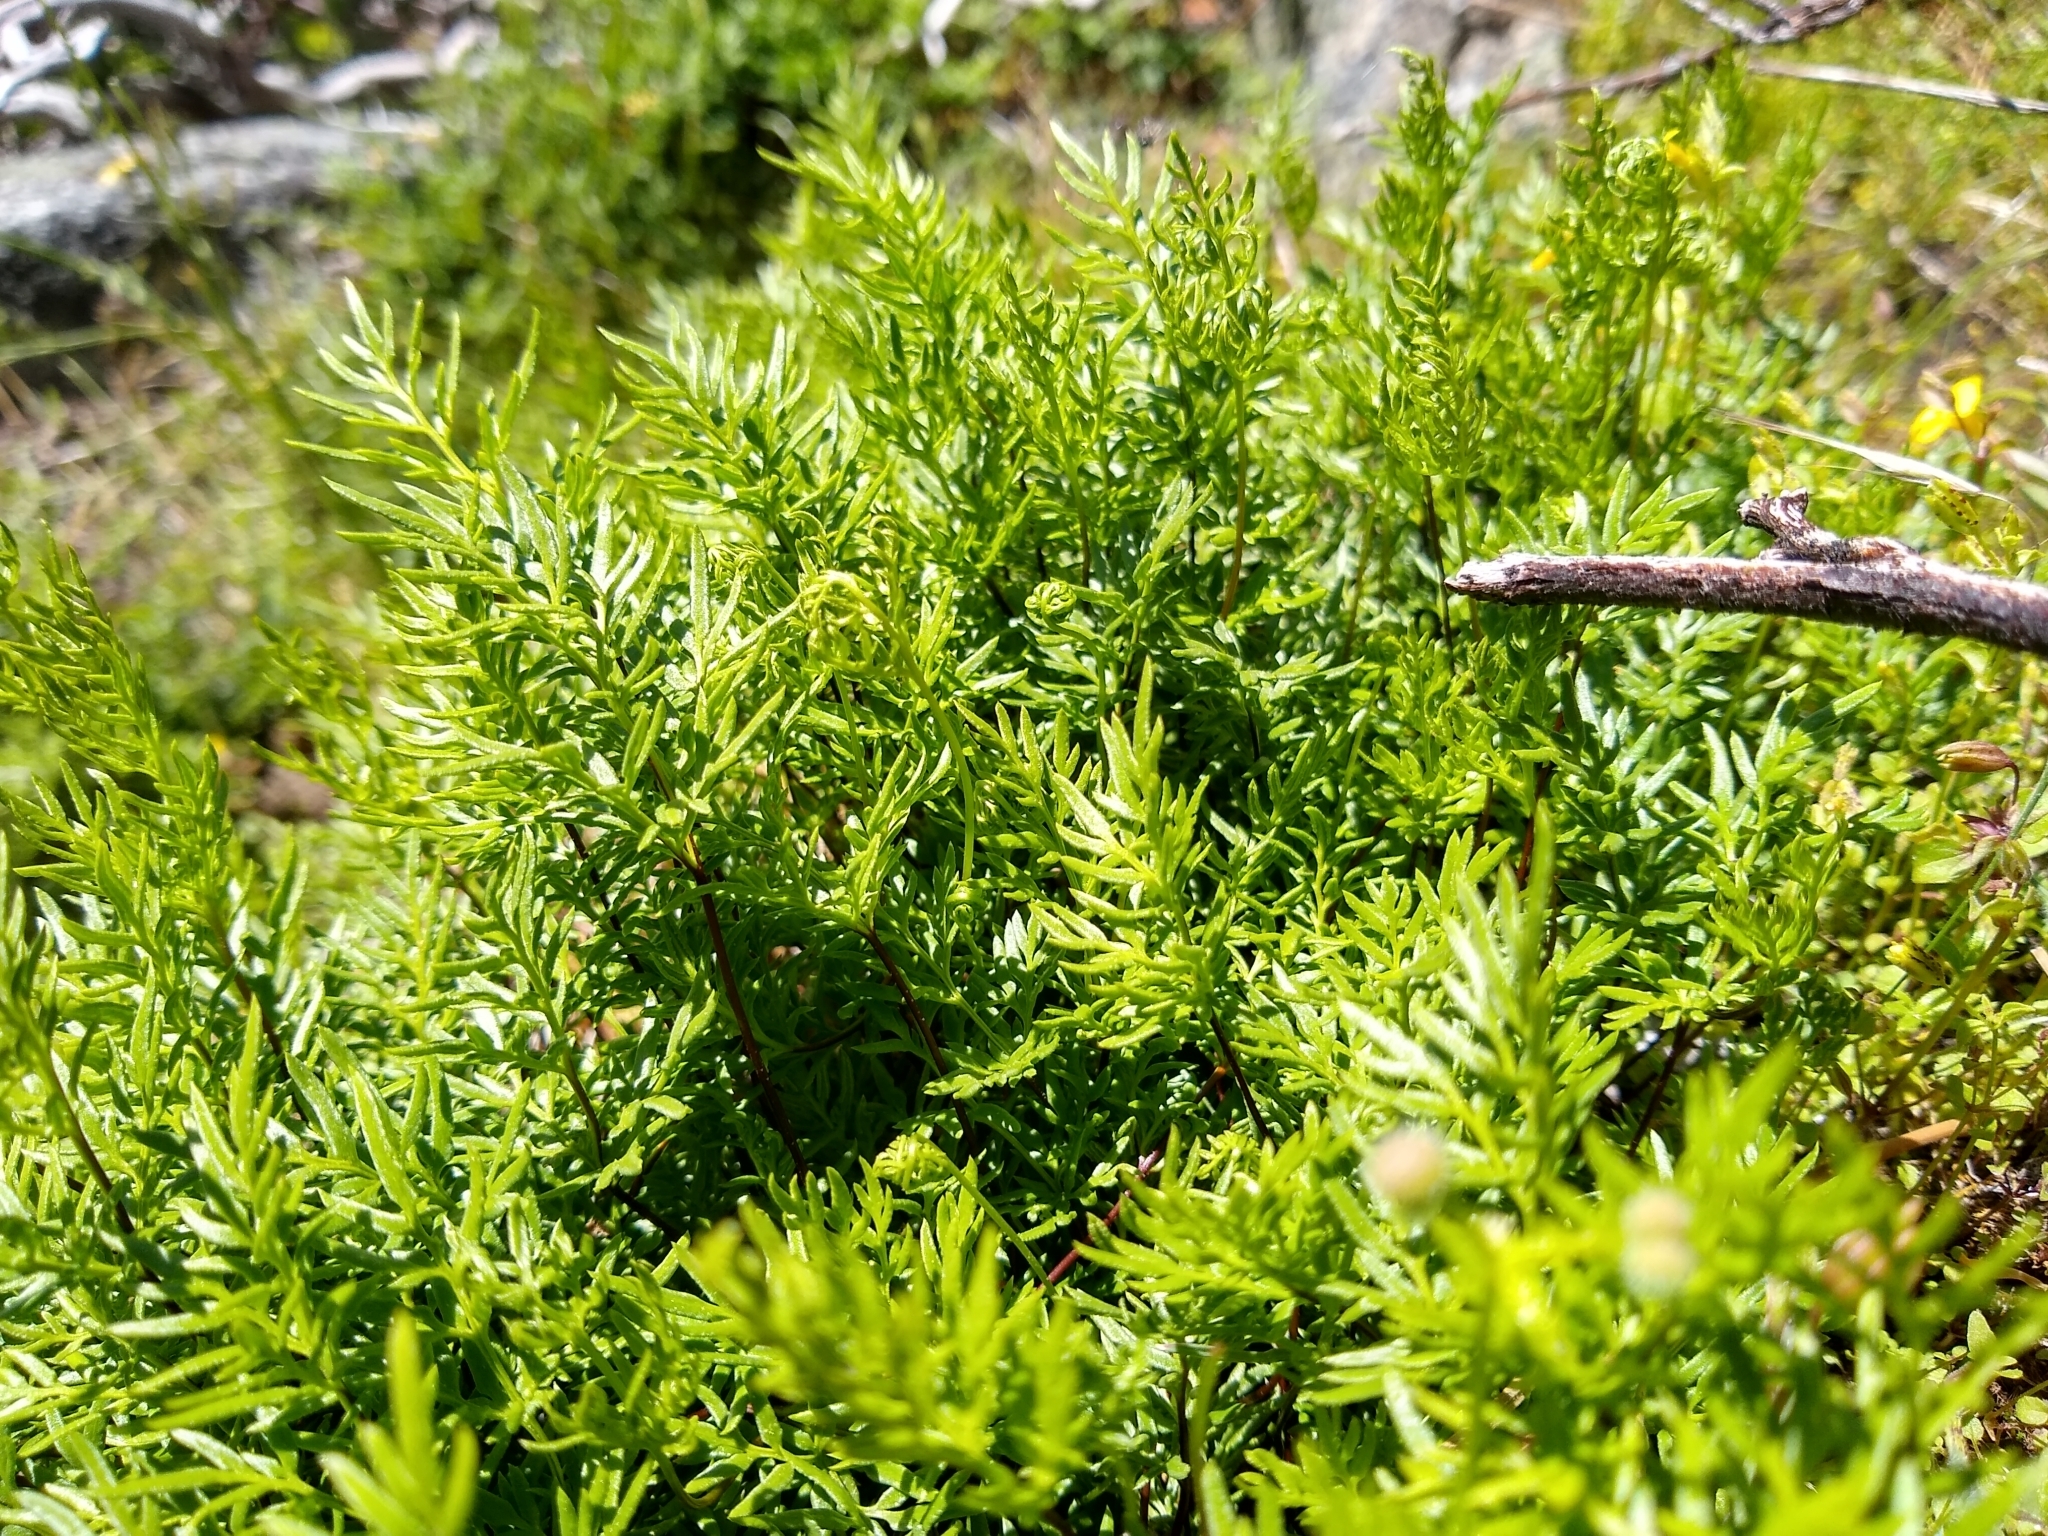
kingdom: Plantae
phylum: Tracheophyta
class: Polypodiopsida
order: Polypodiales
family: Pteridaceae
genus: Aspidotis
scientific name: Aspidotis densa
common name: Indian's dream
